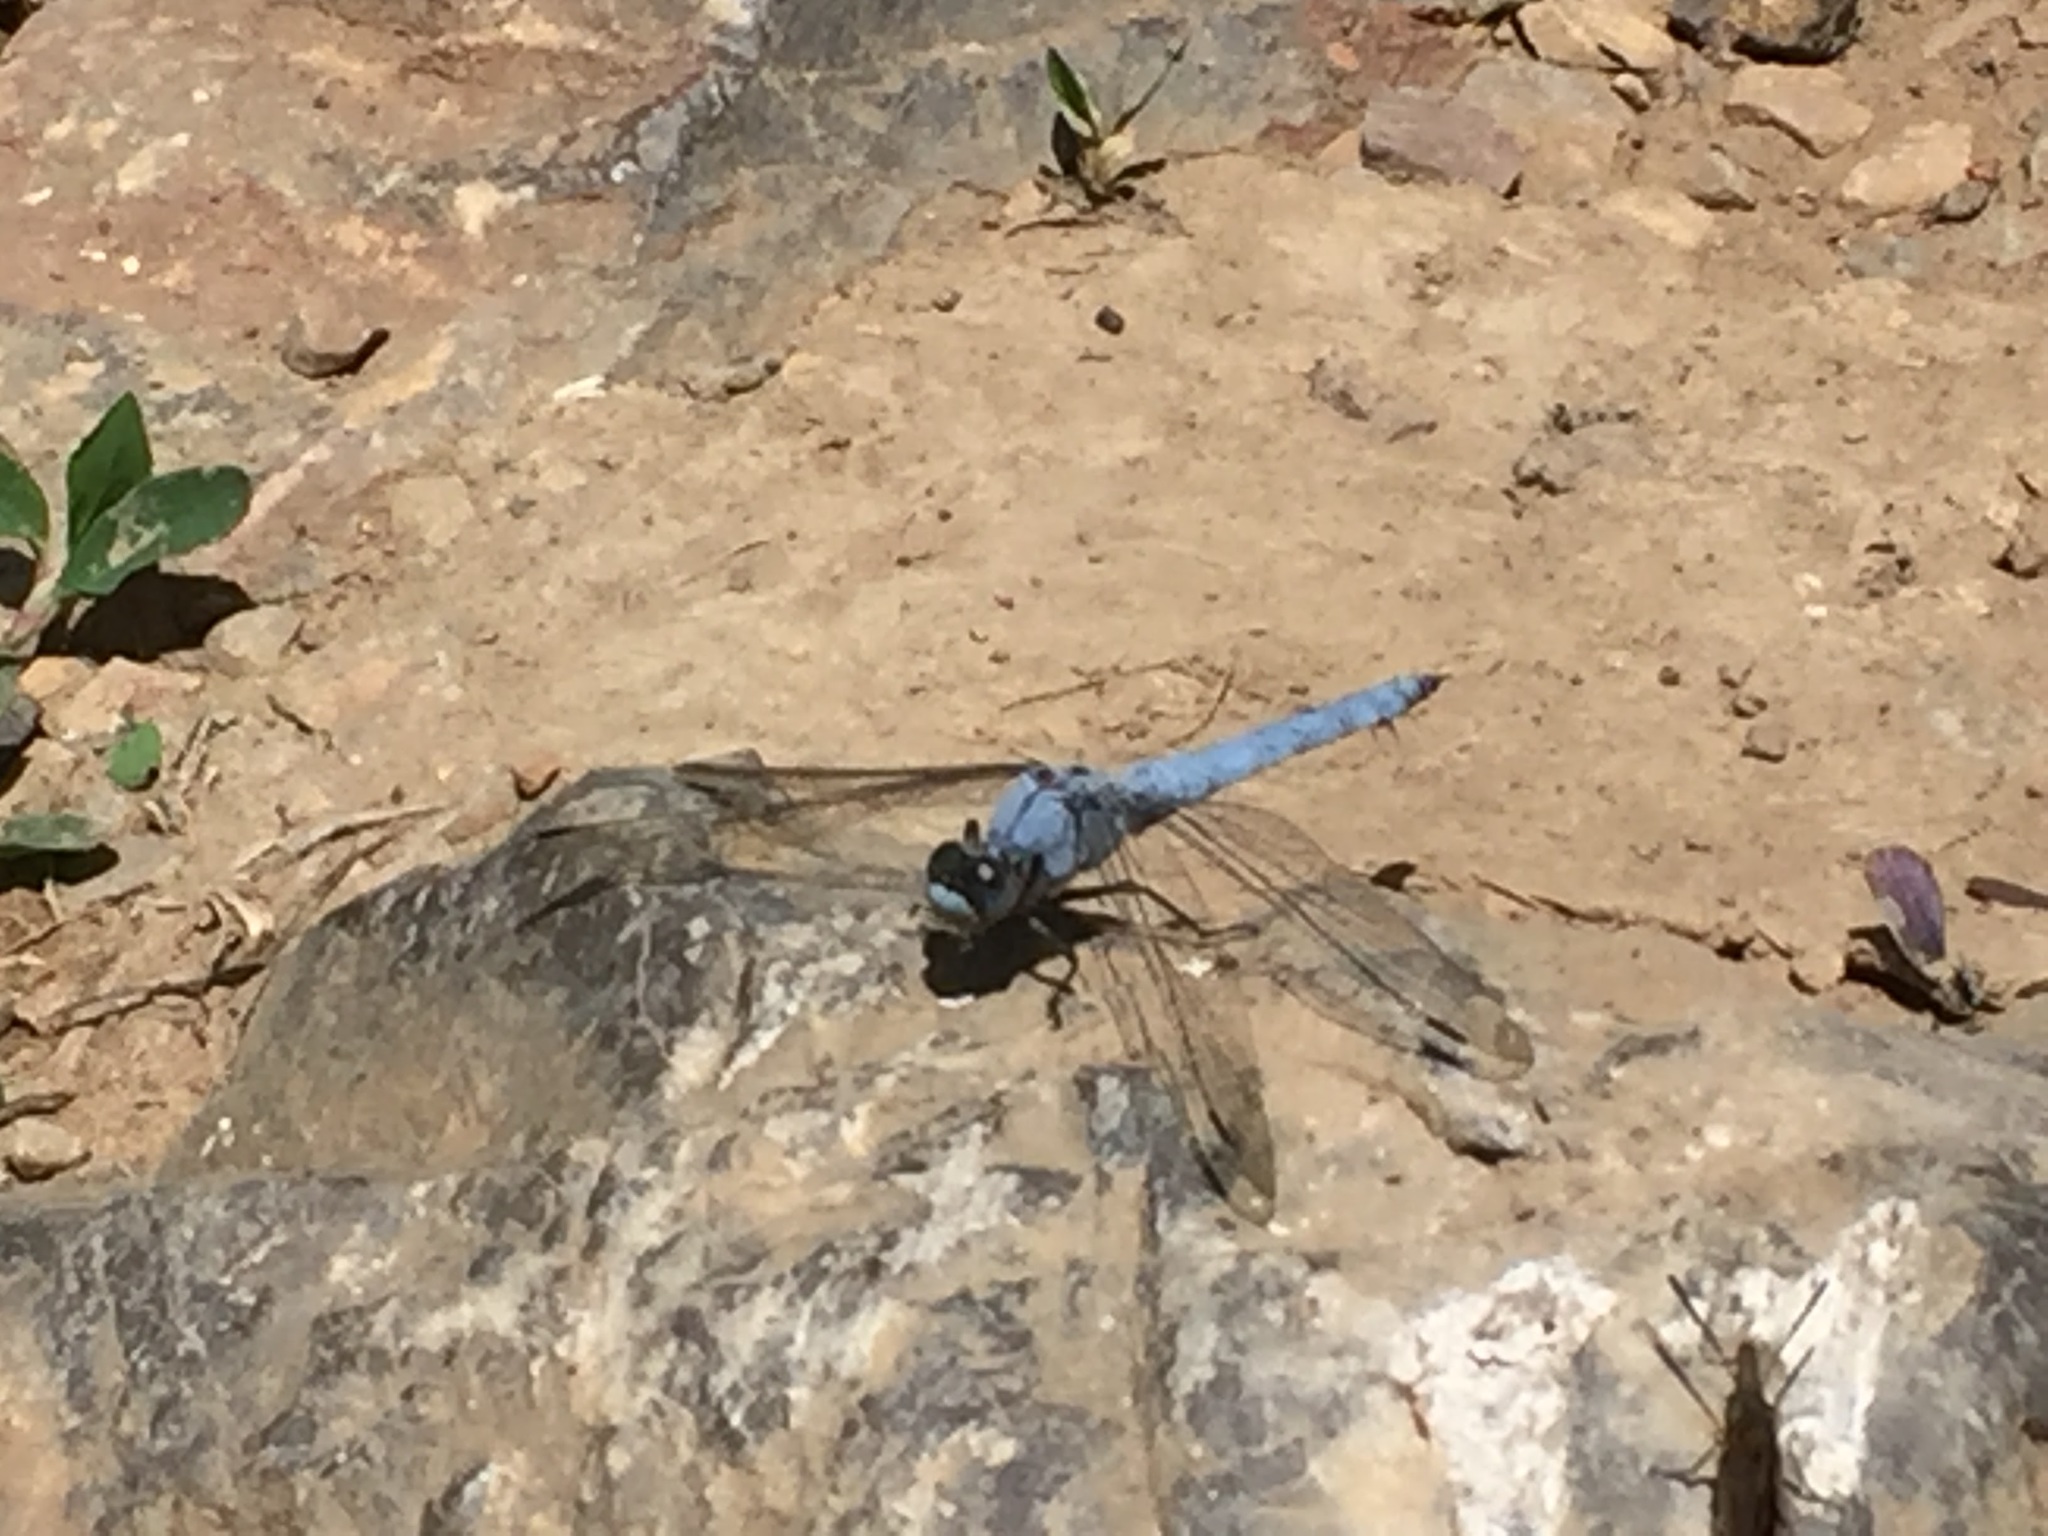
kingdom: Animalia
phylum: Arthropoda
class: Insecta
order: Odonata
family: Libellulidae
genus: Orthetrum
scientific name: Orthetrum brunneum
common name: Southern skimmer
